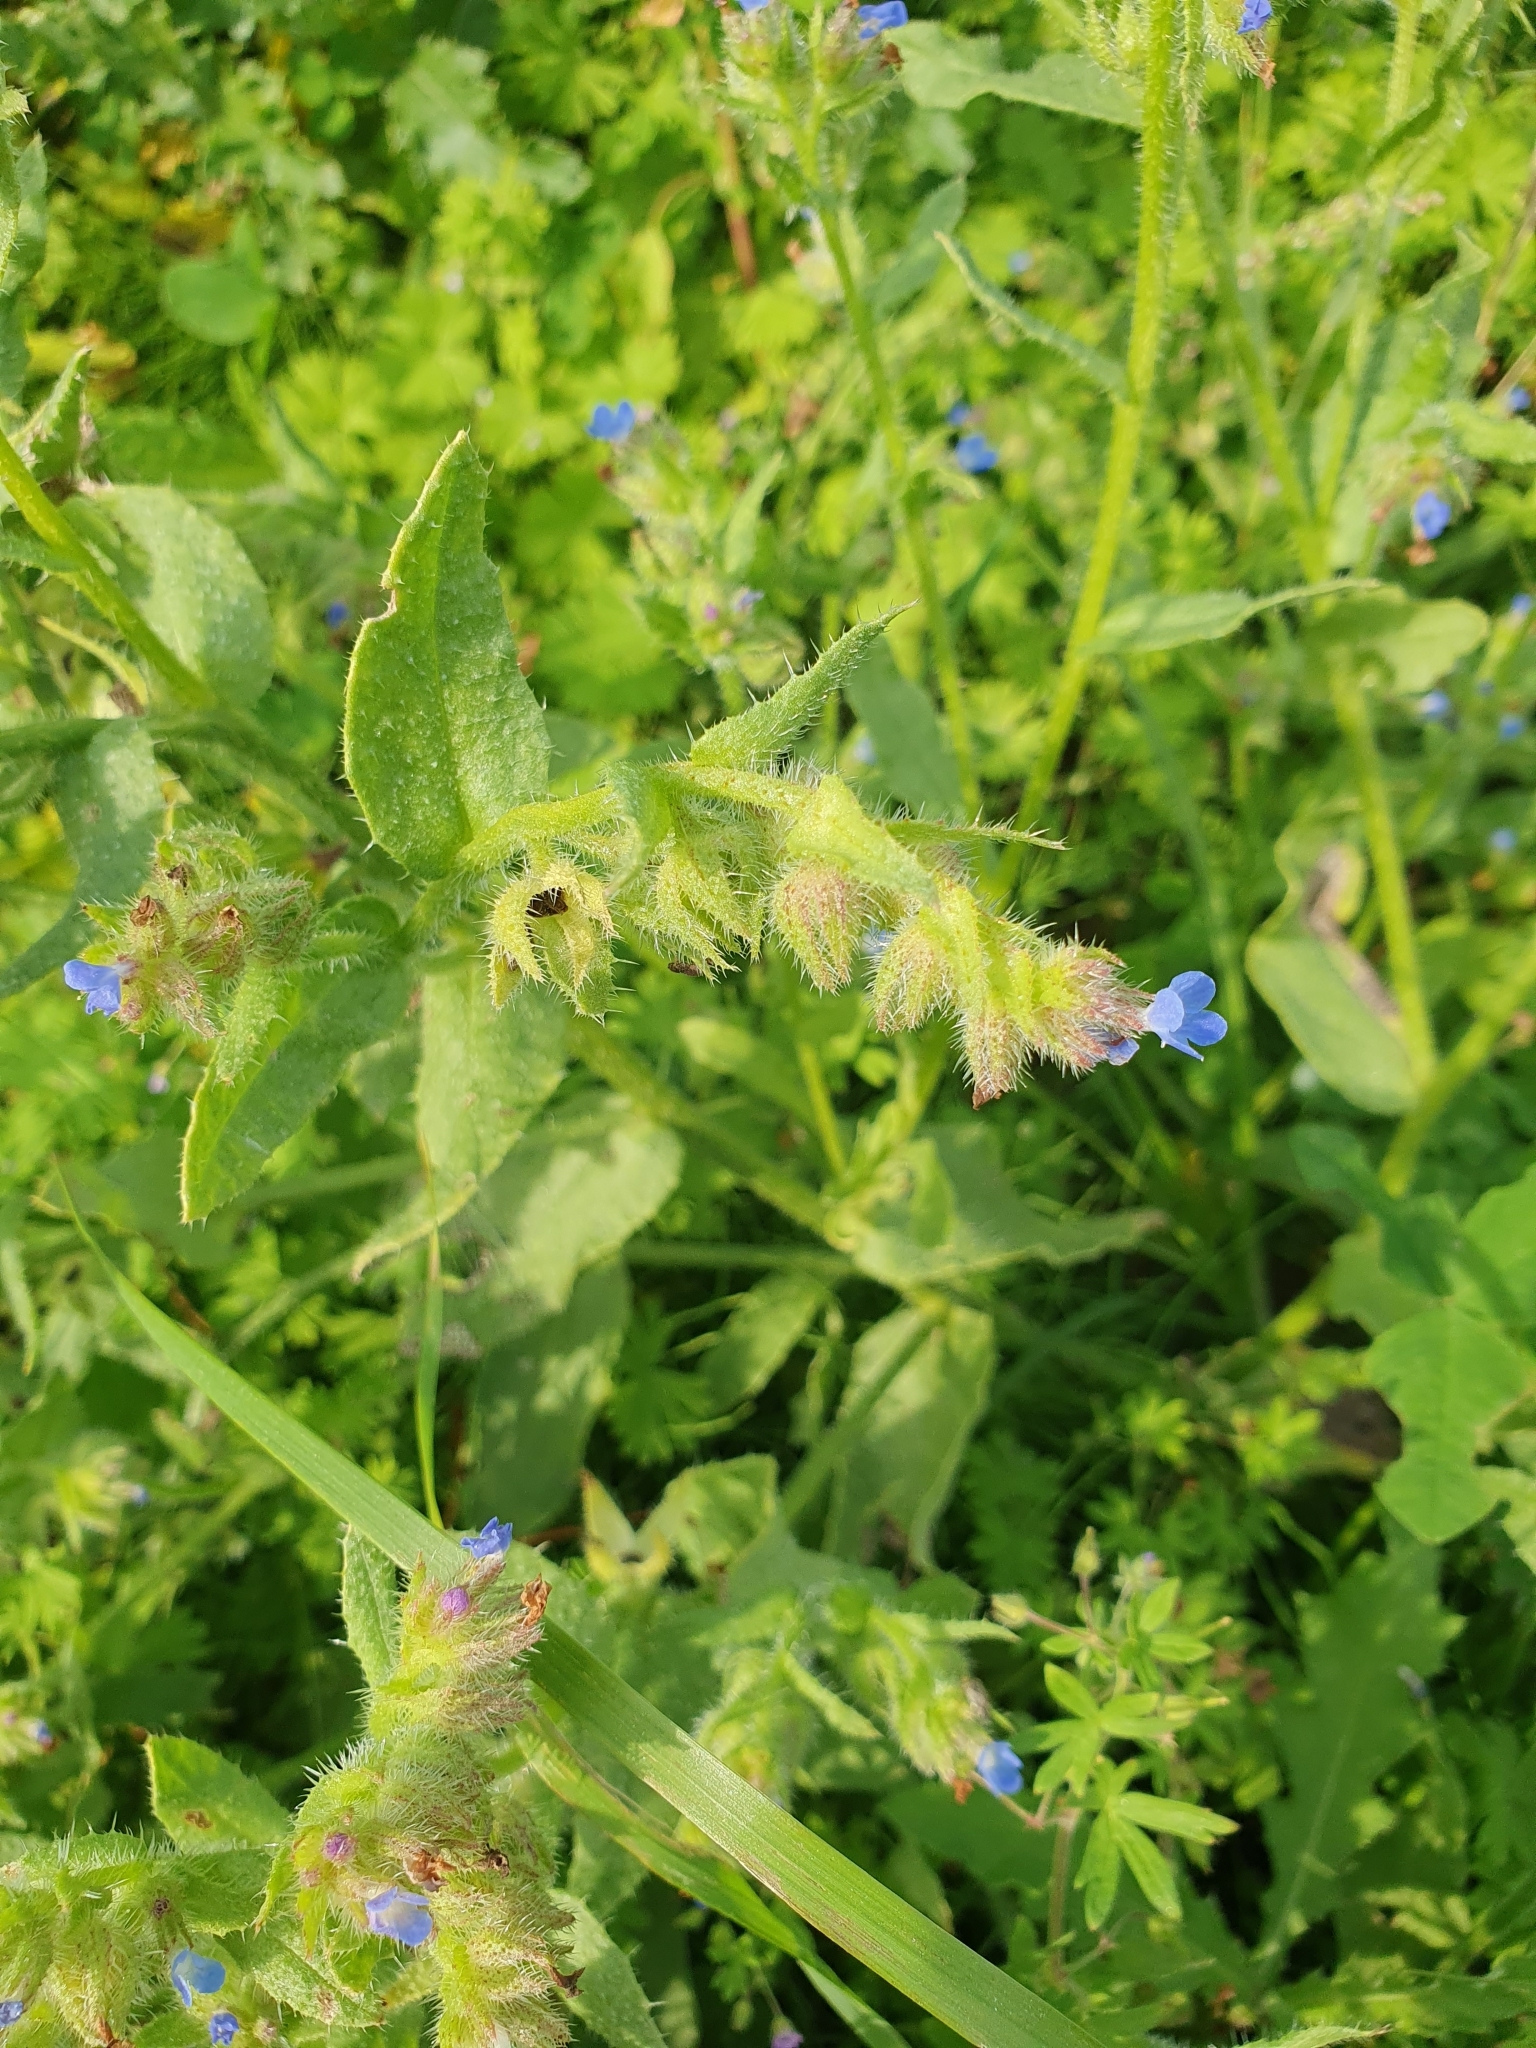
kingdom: Plantae
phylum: Tracheophyta
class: Magnoliopsida
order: Boraginales
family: Boraginaceae
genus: Lycopsis
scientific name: Lycopsis arvensis
